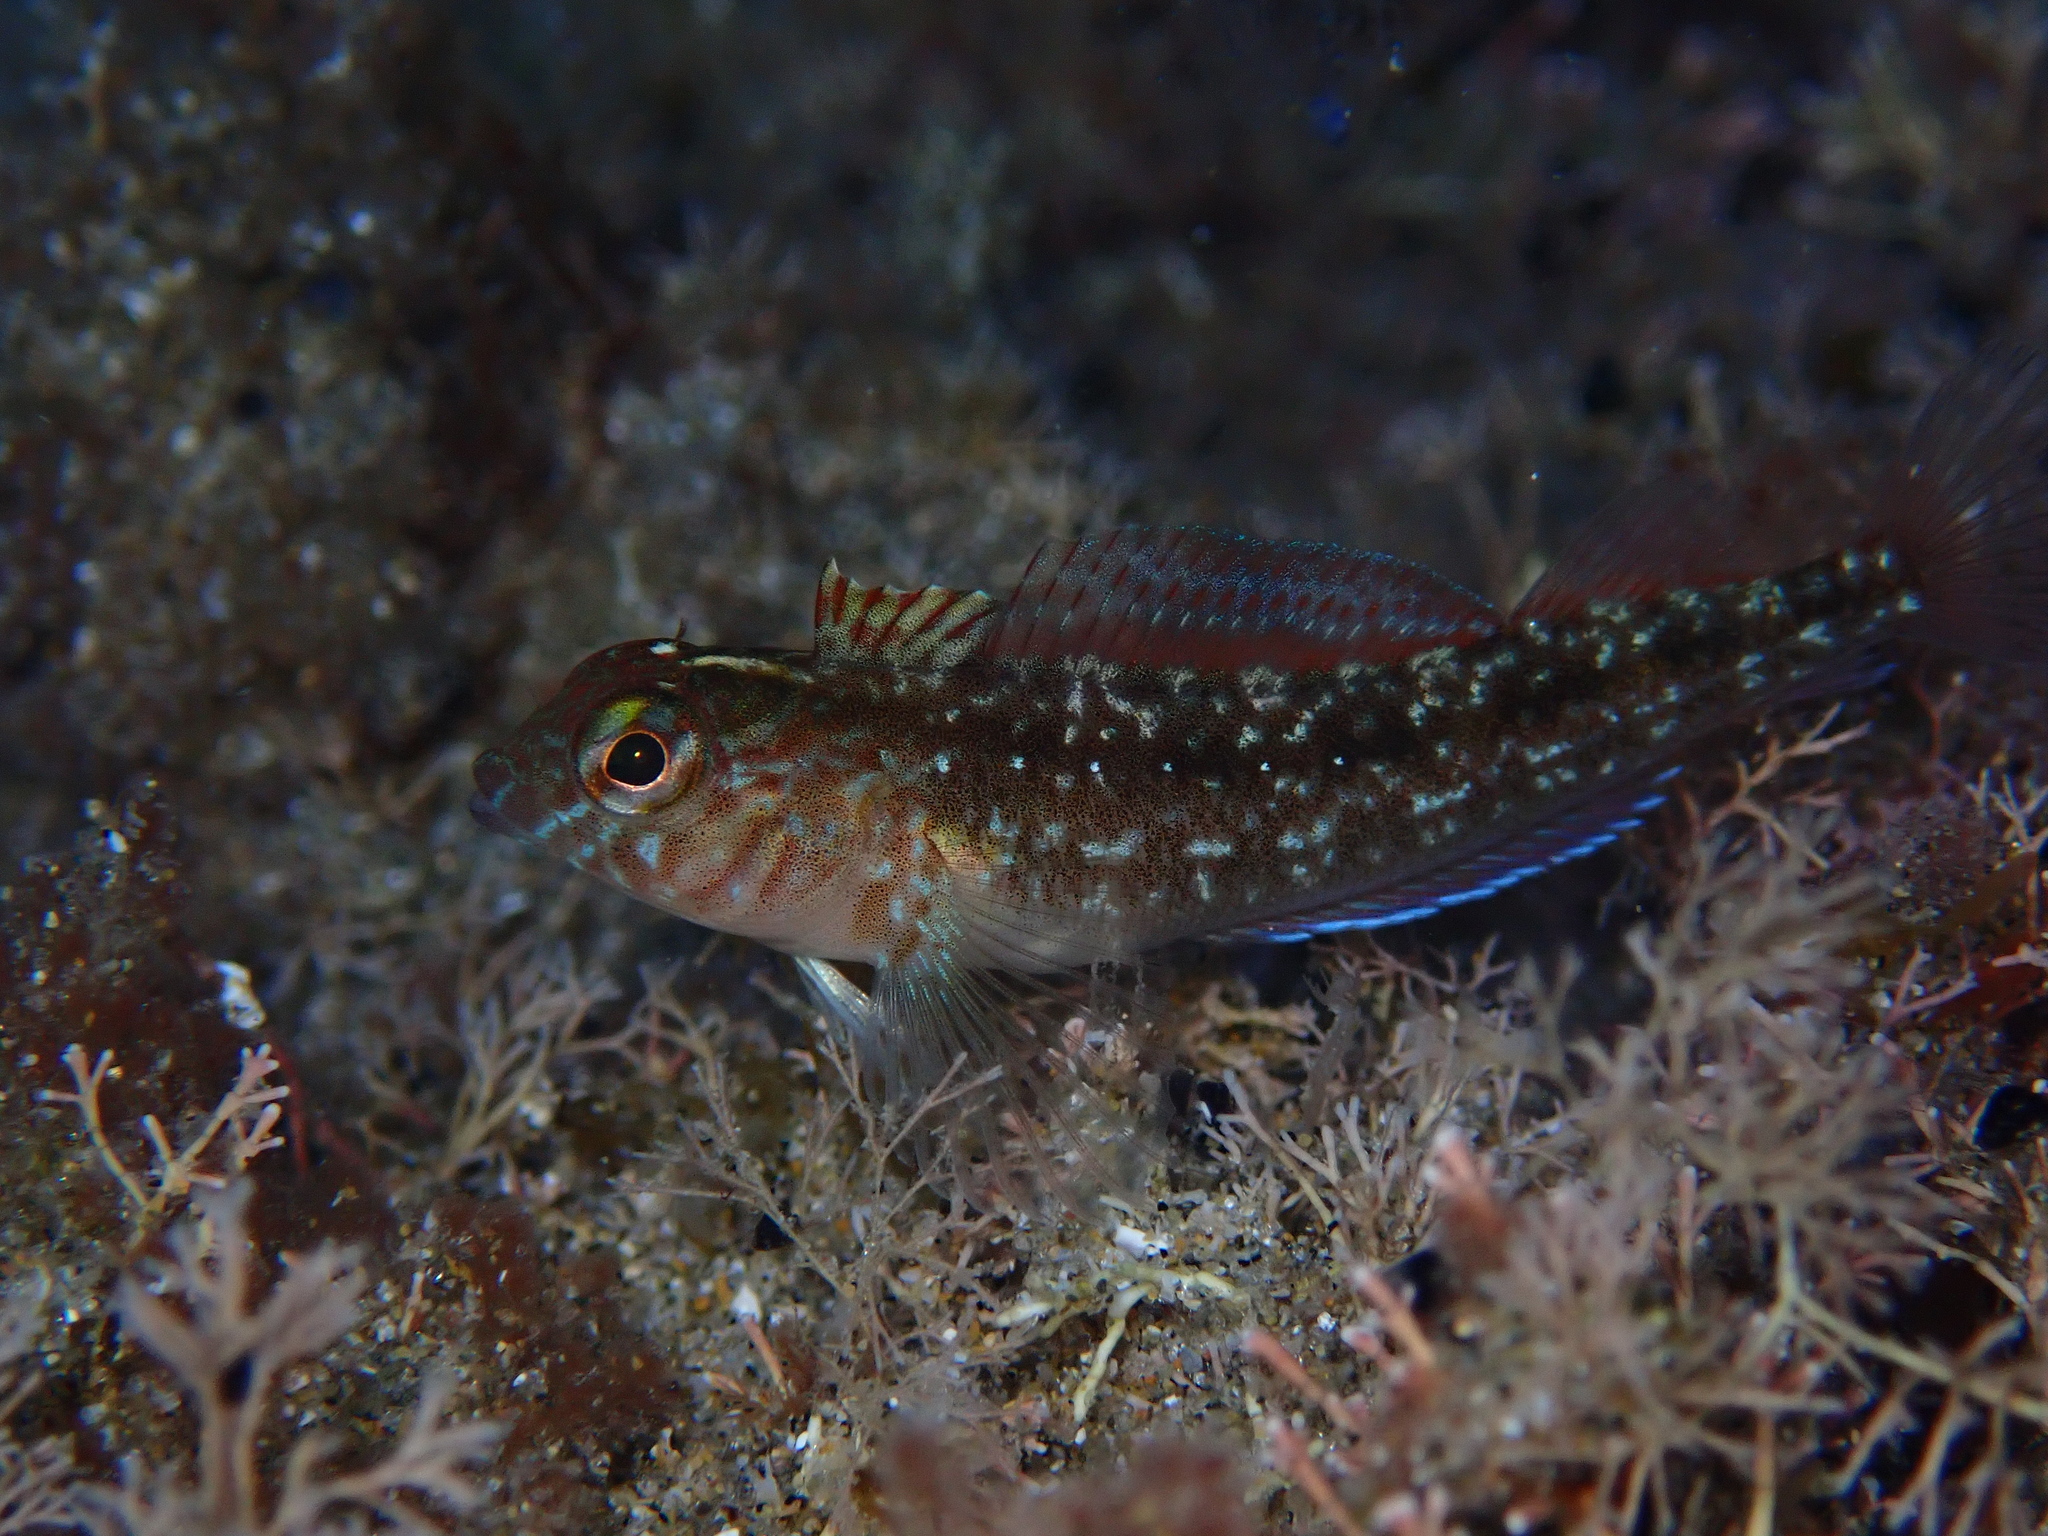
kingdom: Animalia
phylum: Chordata
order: Perciformes
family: Tripterygiidae
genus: Forsterygion
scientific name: Forsterygion lapillum
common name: Common triplefin
